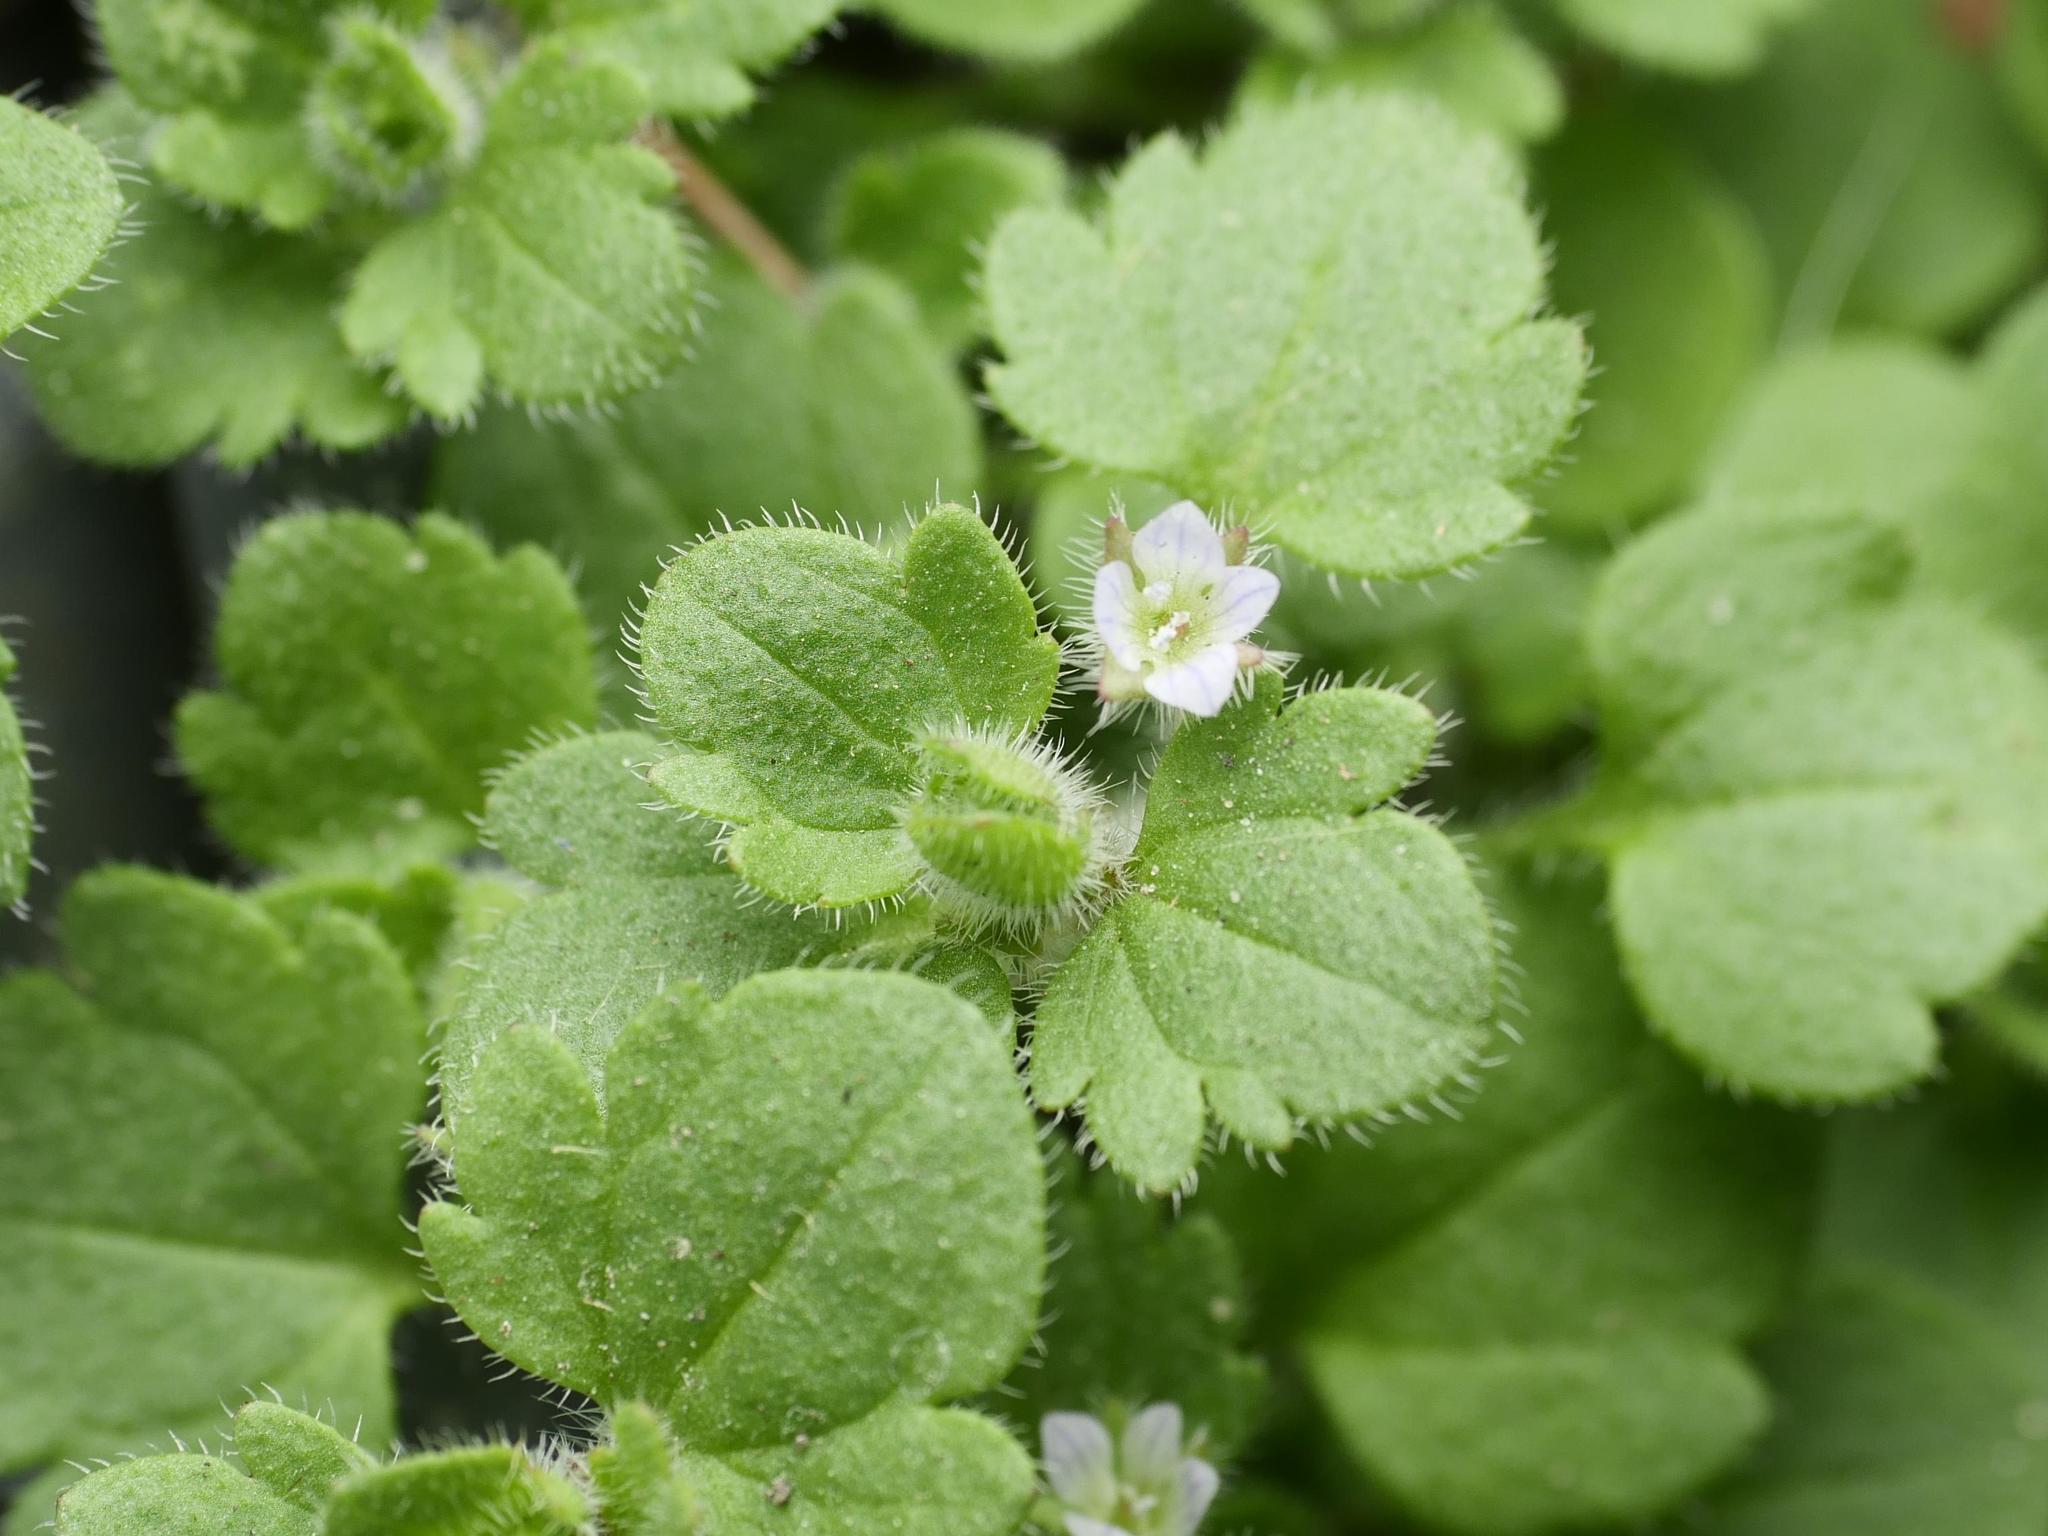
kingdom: Plantae
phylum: Tracheophyta
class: Magnoliopsida
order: Lamiales
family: Plantaginaceae
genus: Veronica
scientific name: Veronica sublobata
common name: False ivy-leaved speedwell
